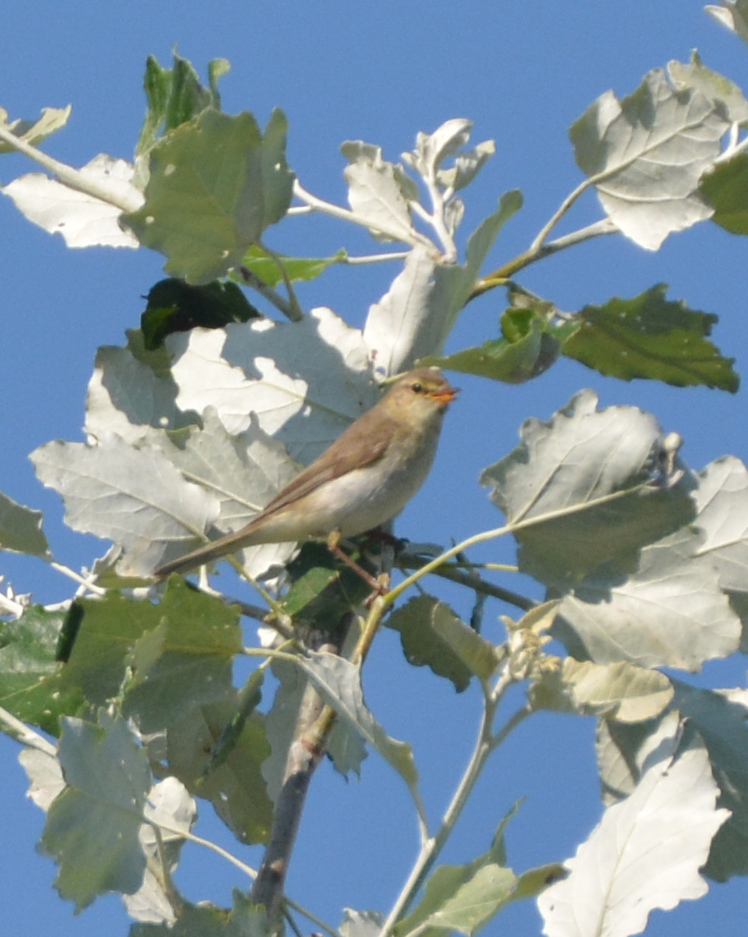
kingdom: Animalia
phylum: Chordata
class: Aves
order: Passeriformes
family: Phylloscopidae
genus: Phylloscopus
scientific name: Phylloscopus trochilus
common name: Willow warbler
